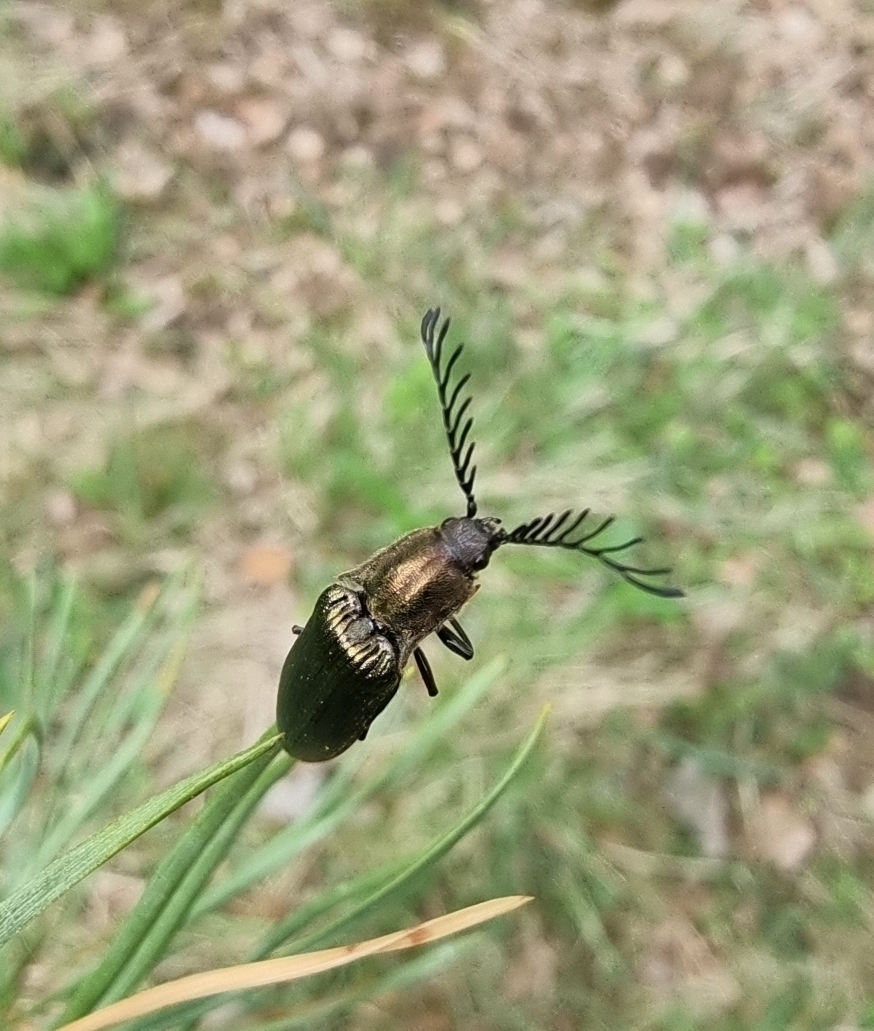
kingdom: Animalia
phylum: Arthropoda
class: Insecta
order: Coleoptera
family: Elateridae
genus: Ctenicera
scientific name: Ctenicera pectinicornis
